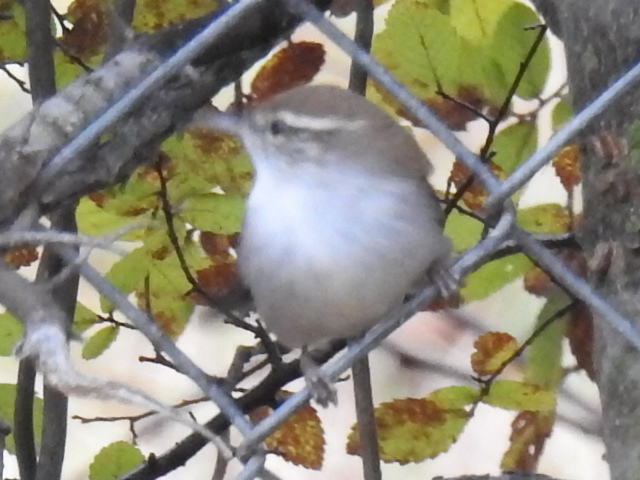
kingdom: Animalia
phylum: Chordata
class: Aves
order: Passeriformes
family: Troglodytidae
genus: Thryomanes
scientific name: Thryomanes bewickii
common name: Bewick's wren
